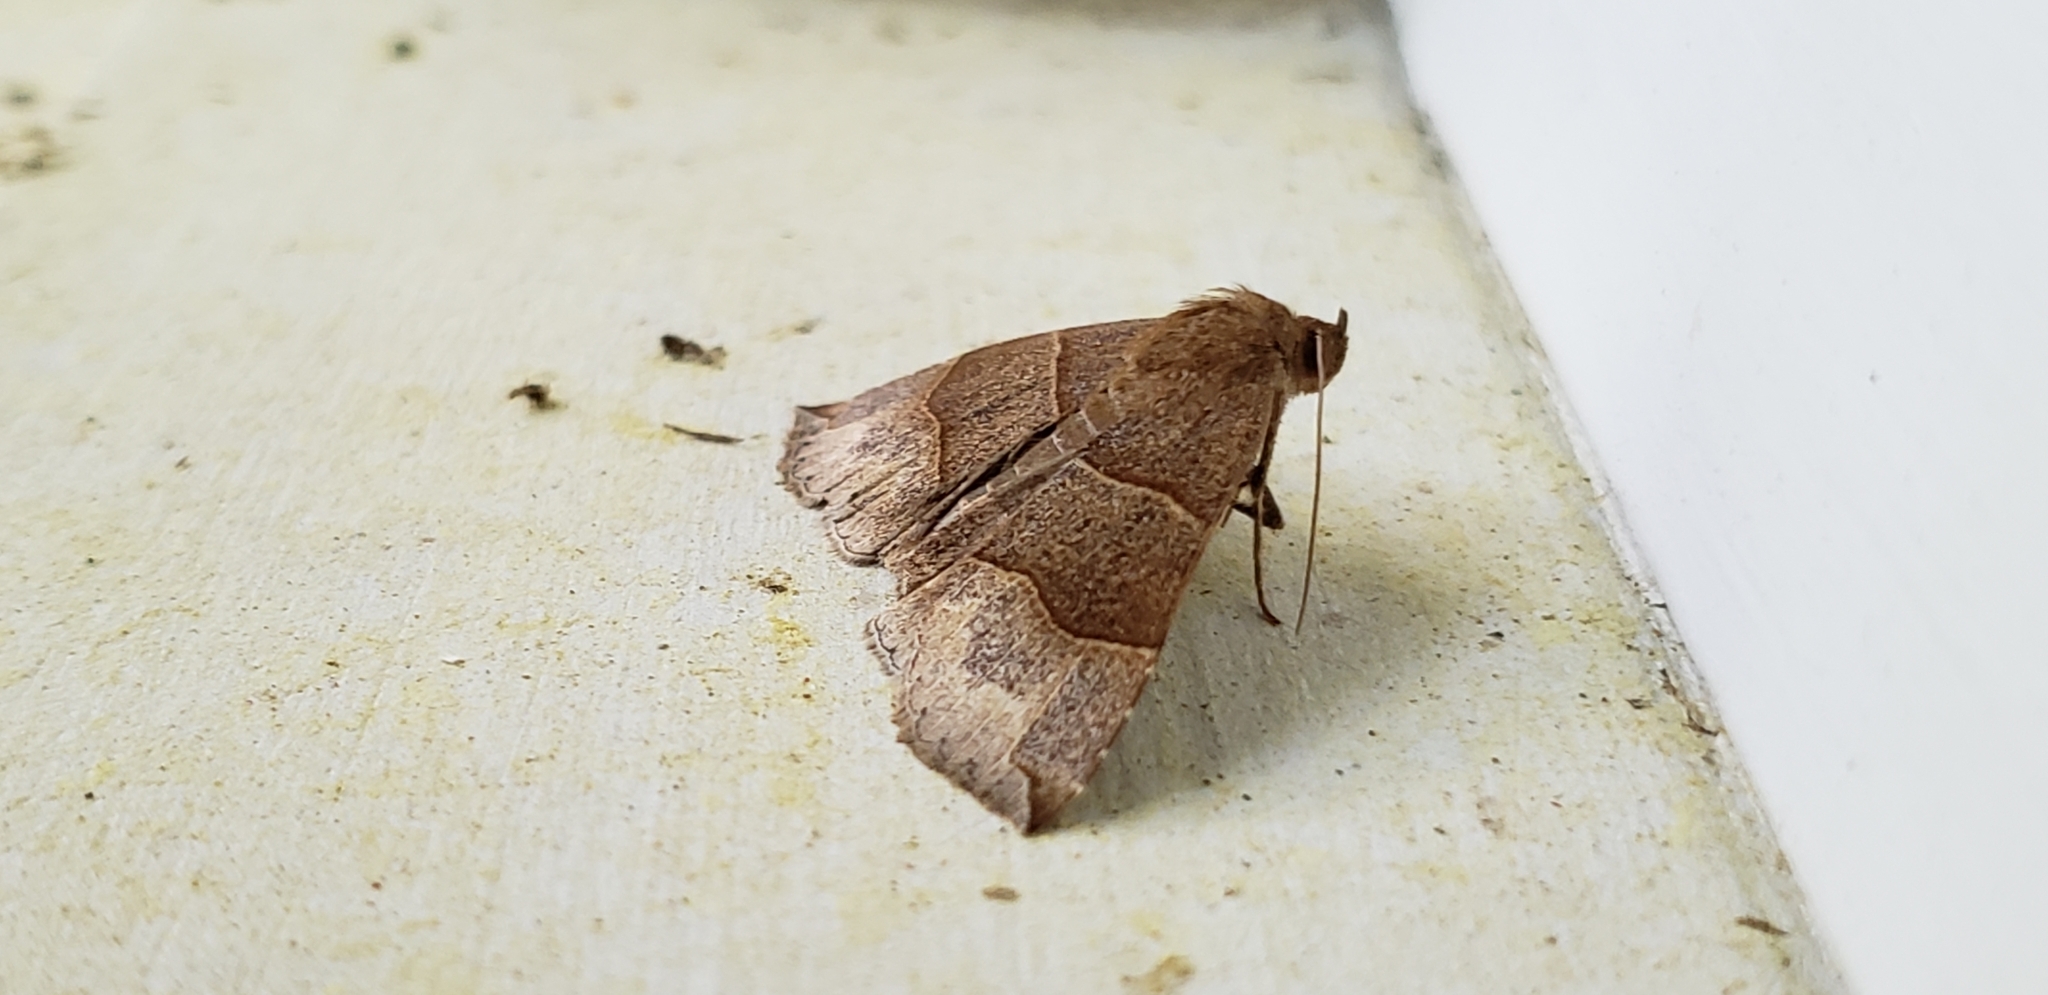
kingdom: Animalia
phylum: Arthropoda
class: Insecta
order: Lepidoptera
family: Erebidae
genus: Parallelia
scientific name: Parallelia bistriaris
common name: Maple looper moth
